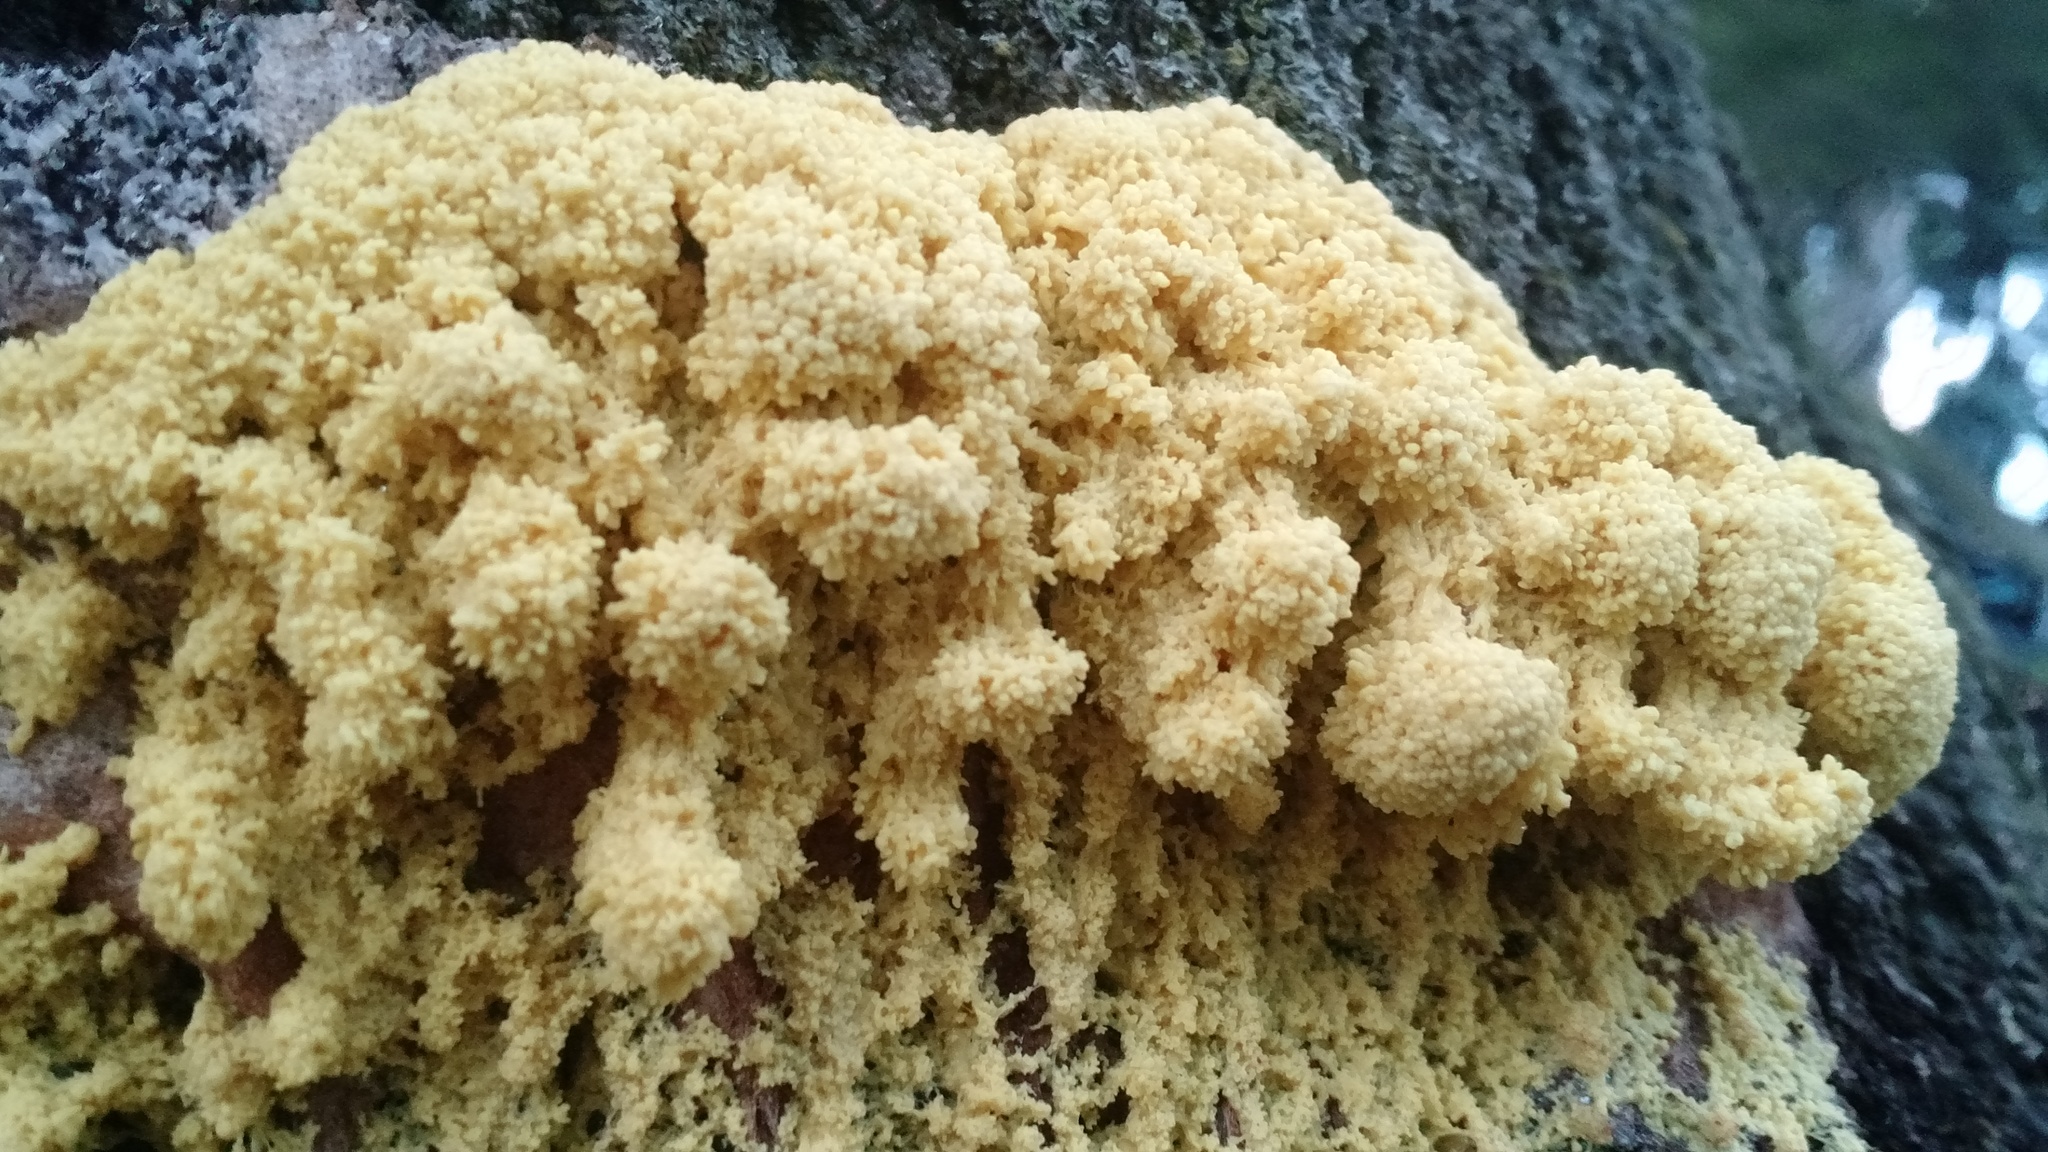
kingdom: Protozoa
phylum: Mycetozoa
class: Myxomycetes
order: Physarales
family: Physaraceae
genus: Fuligo
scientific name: Fuligo septica
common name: Dog vomit slime mold
